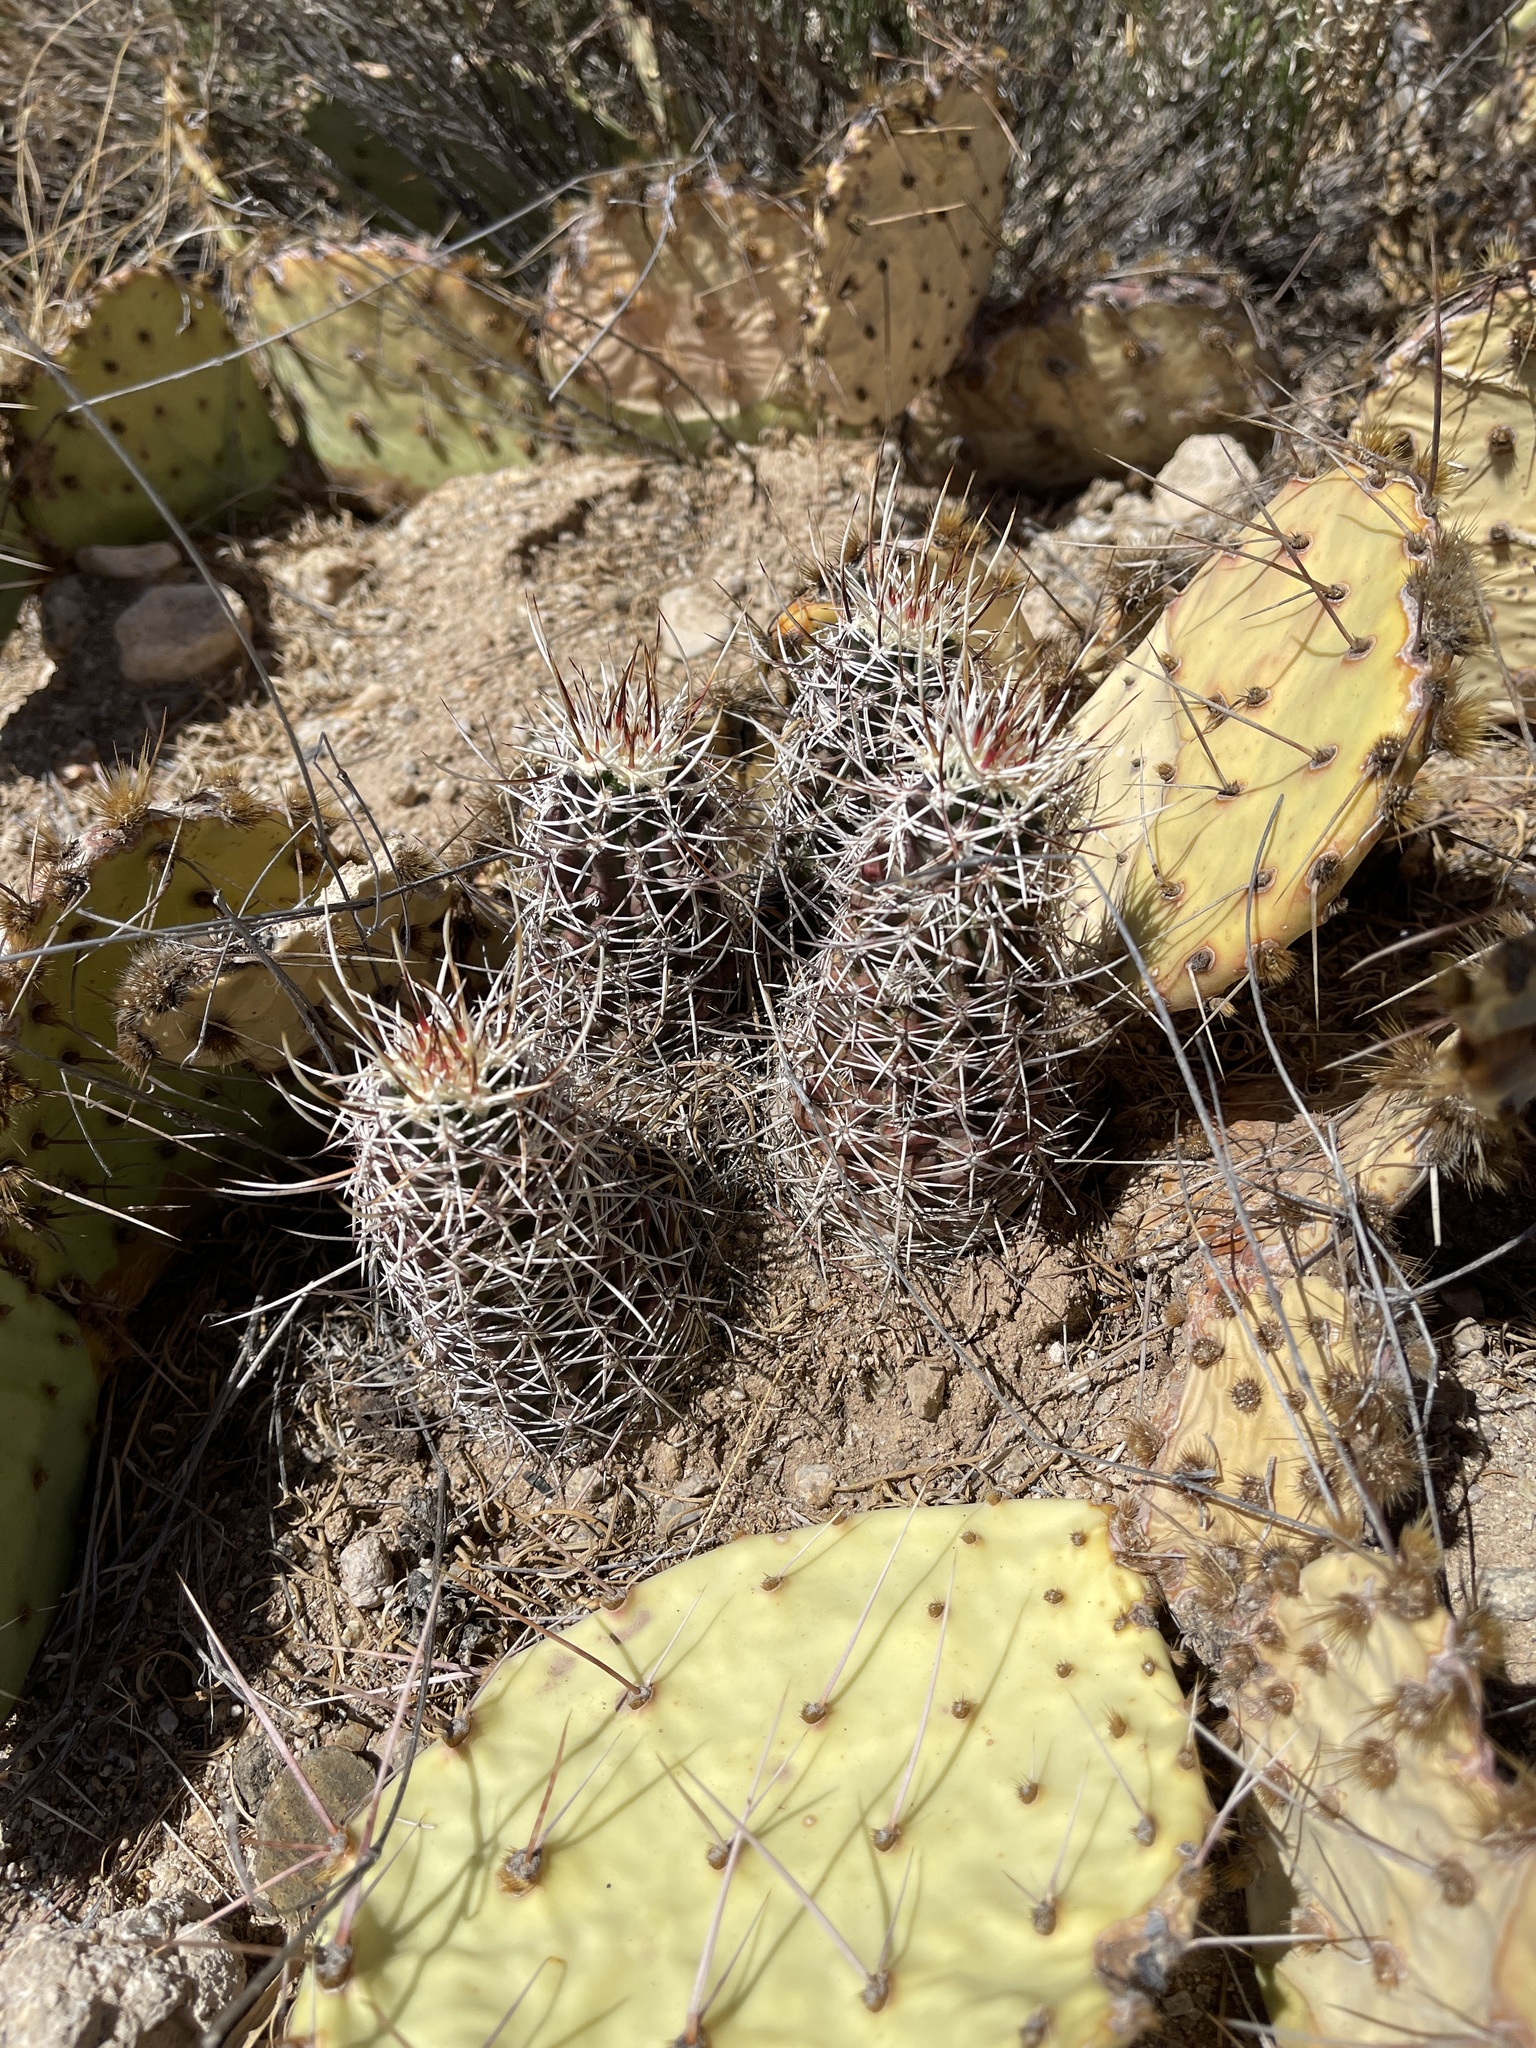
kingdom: Plantae
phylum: Tracheophyta
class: Magnoliopsida
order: Caryophyllales
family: Cactaceae
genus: Echinocereus
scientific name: Echinocereus fendleri
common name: Fendler's hedgehog cactus
